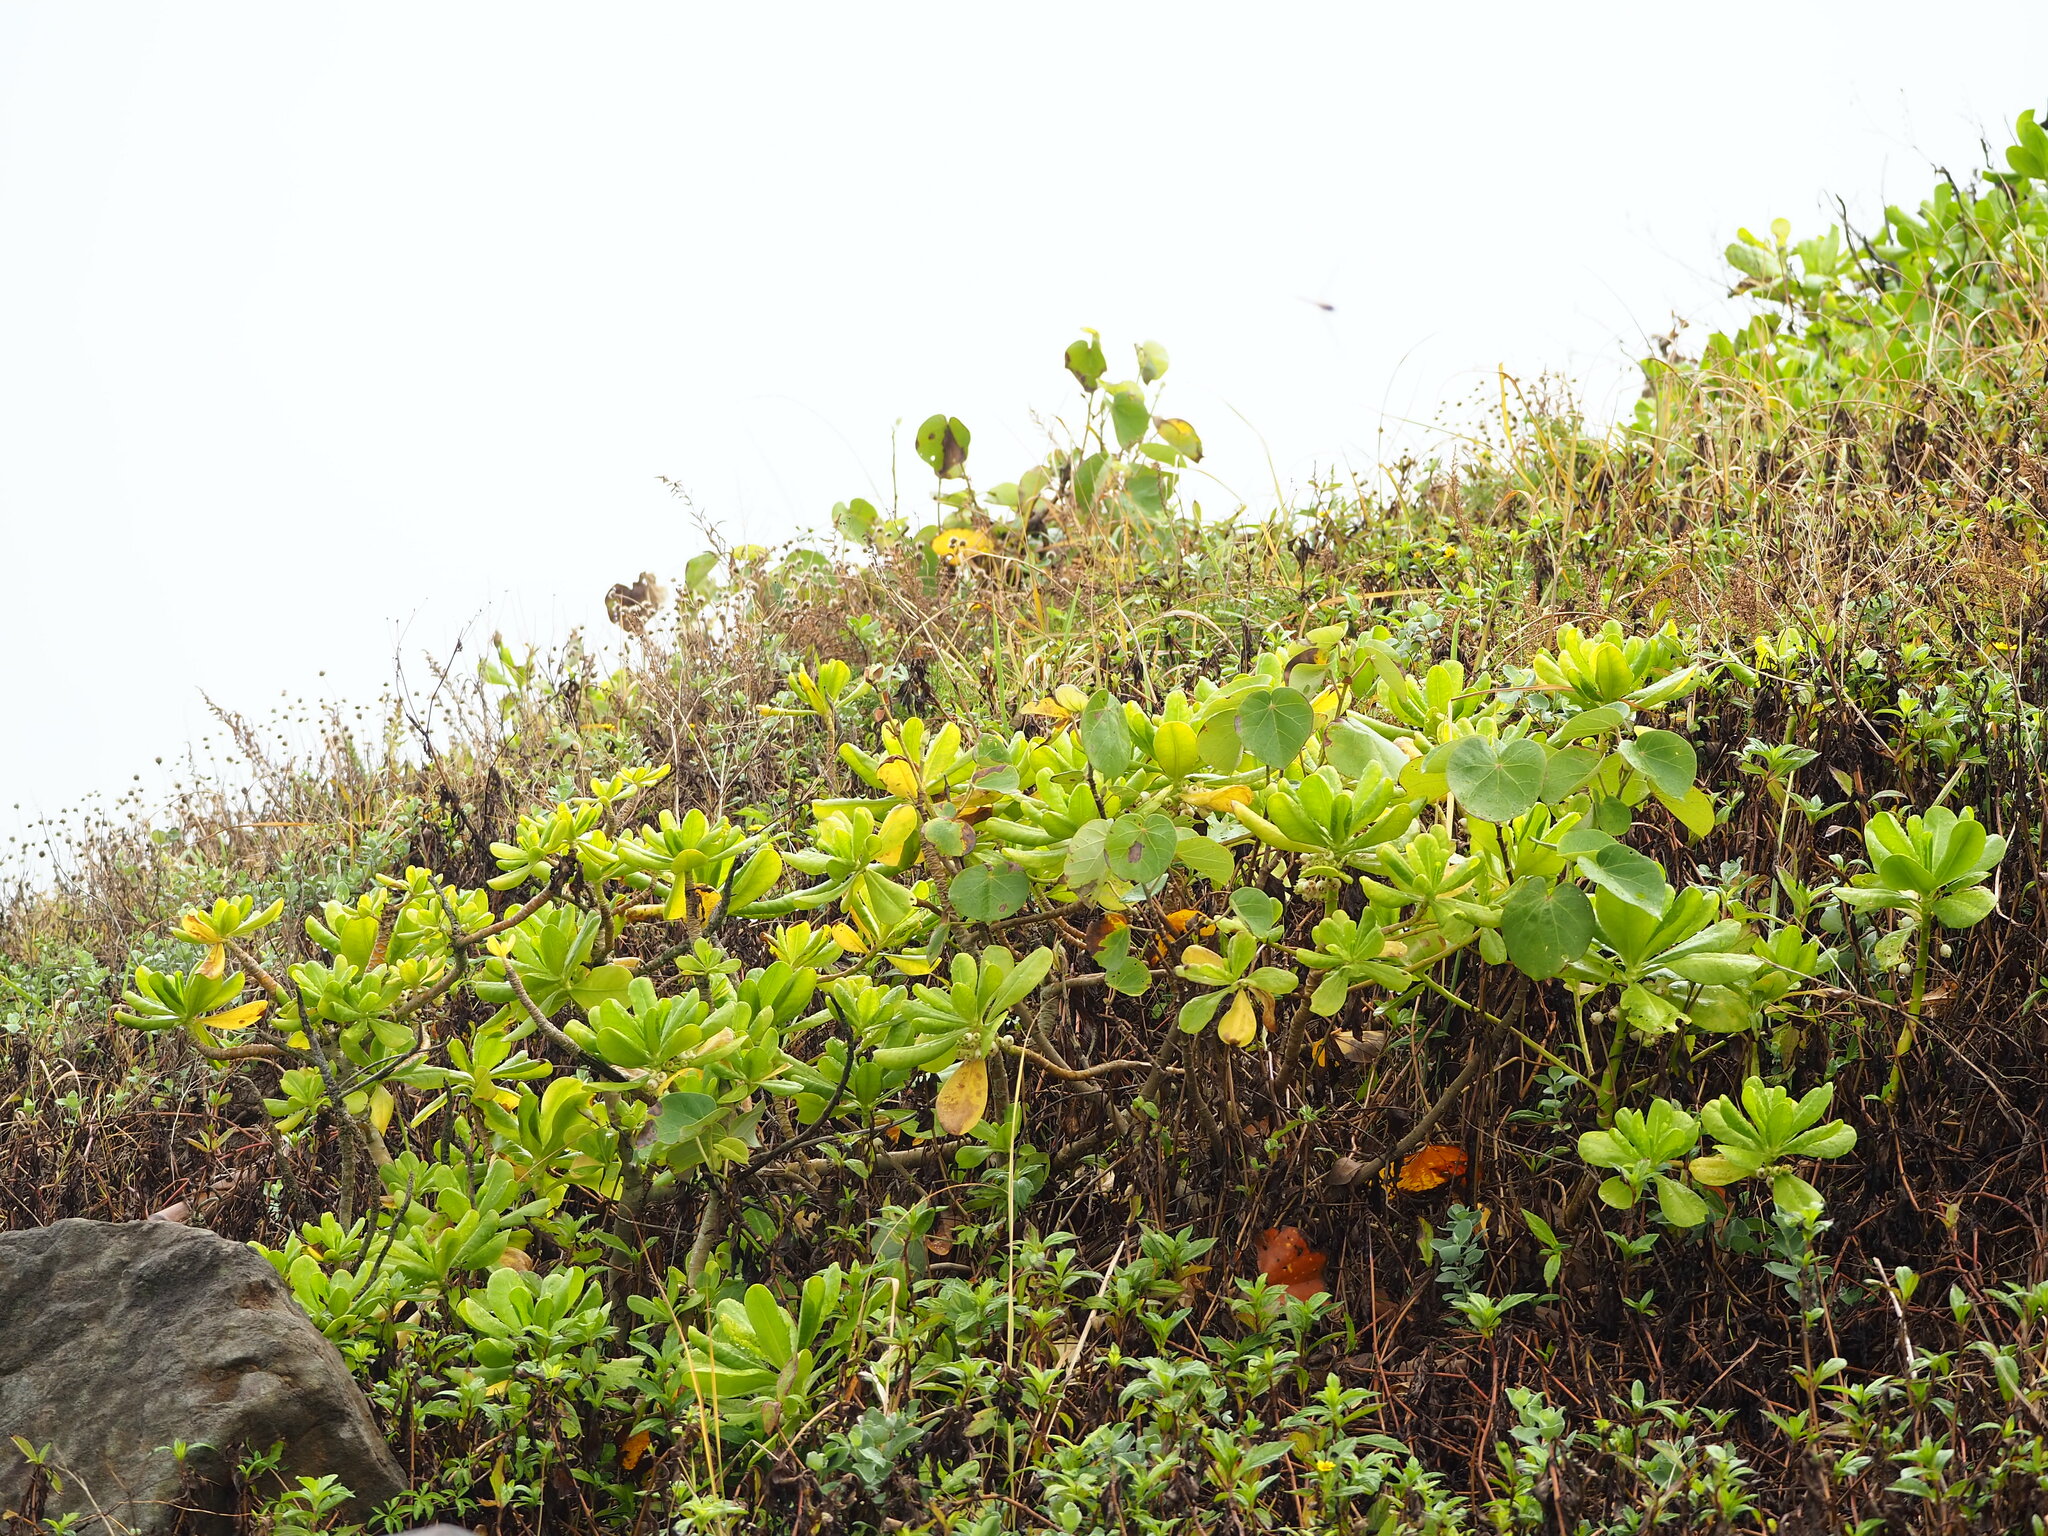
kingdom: Plantae
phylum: Tracheophyta
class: Magnoliopsida
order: Asterales
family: Goodeniaceae
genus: Scaevola
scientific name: Scaevola taccada
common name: Sea lettucetree
